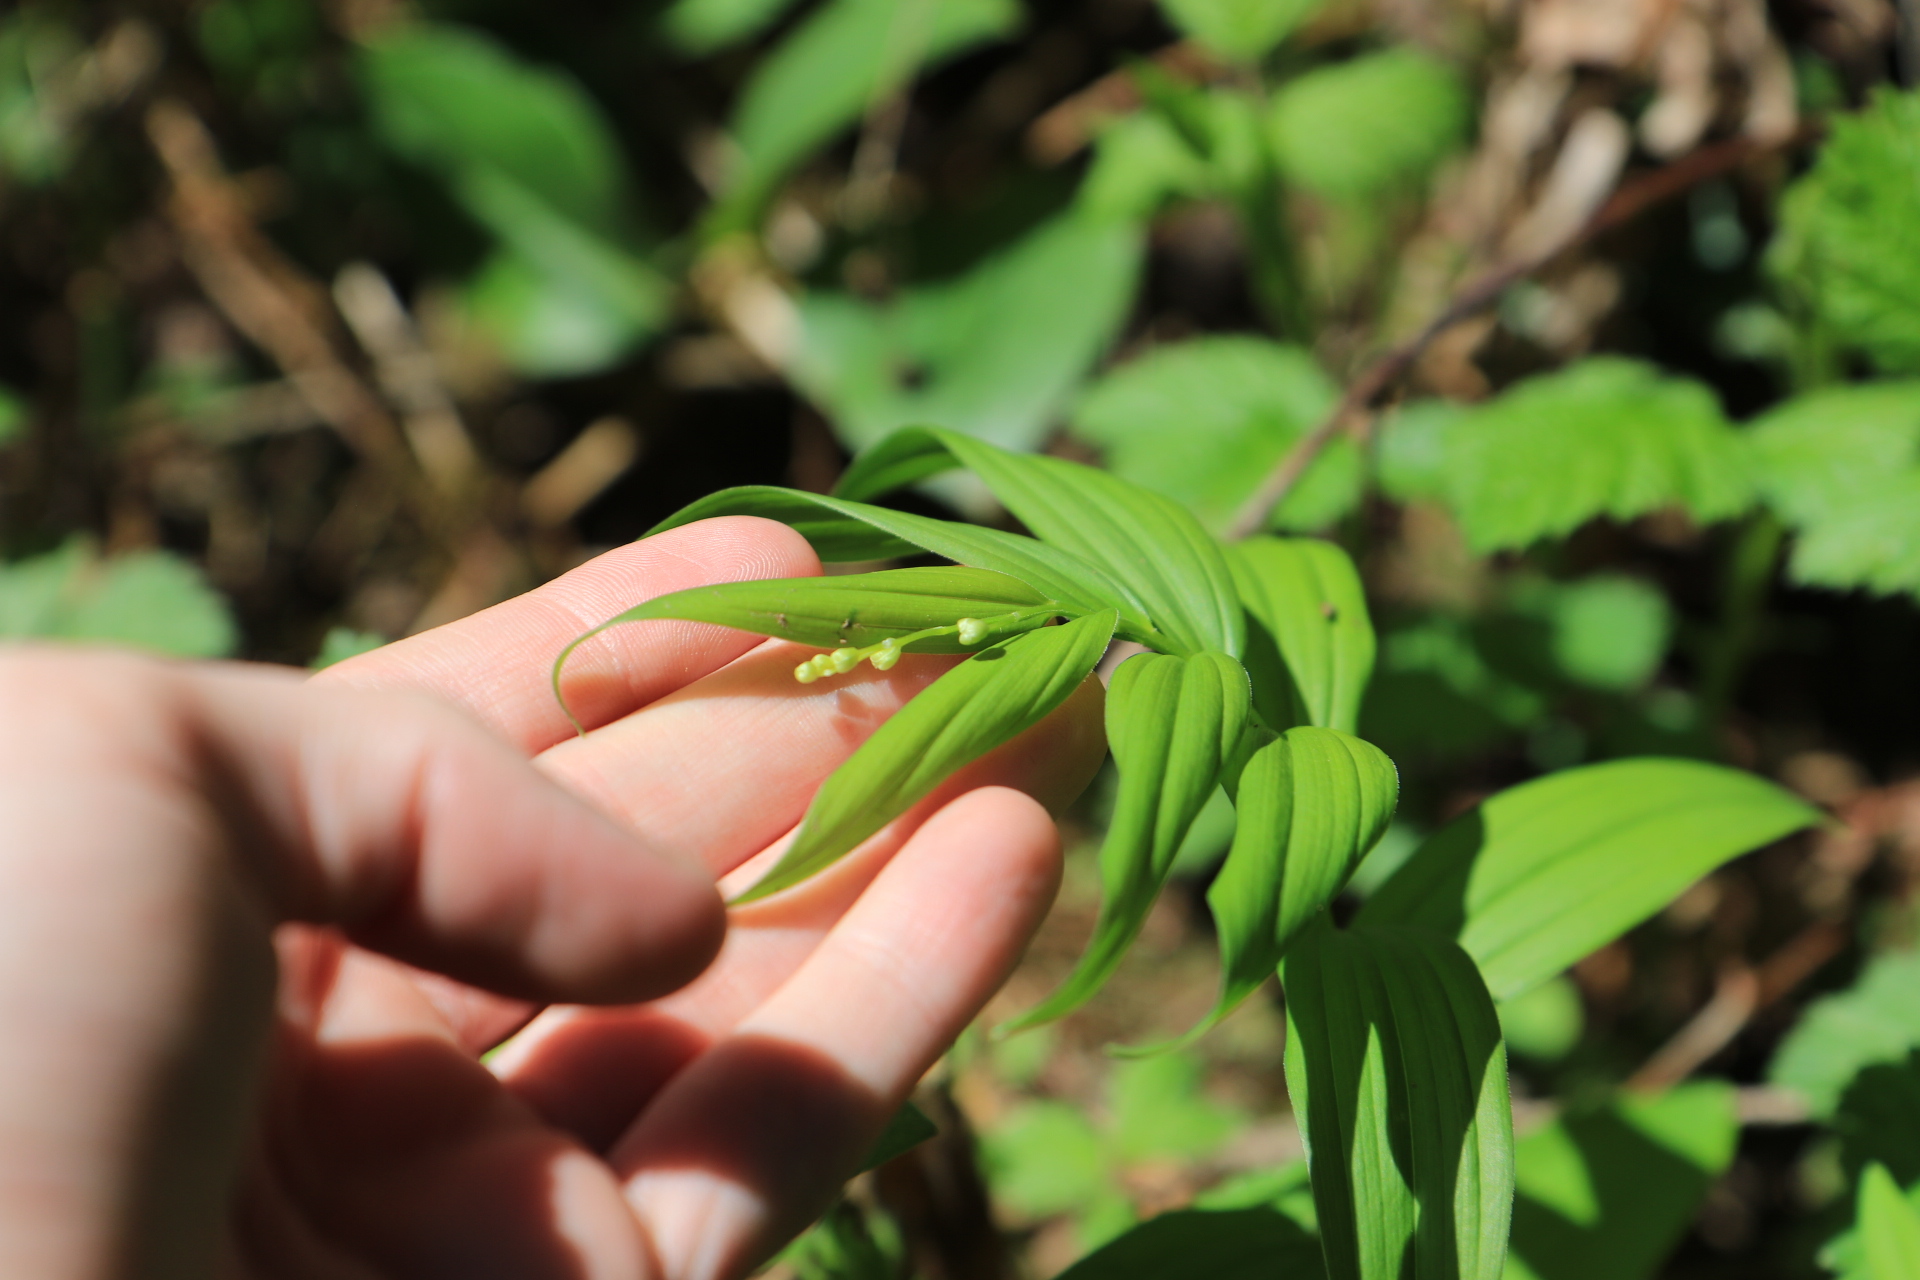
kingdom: Plantae
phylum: Tracheophyta
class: Liliopsida
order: Asparagales
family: Asparagaceae
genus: Maianthemum
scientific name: Maianthemum stellatum
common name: Little false solomon's seal
